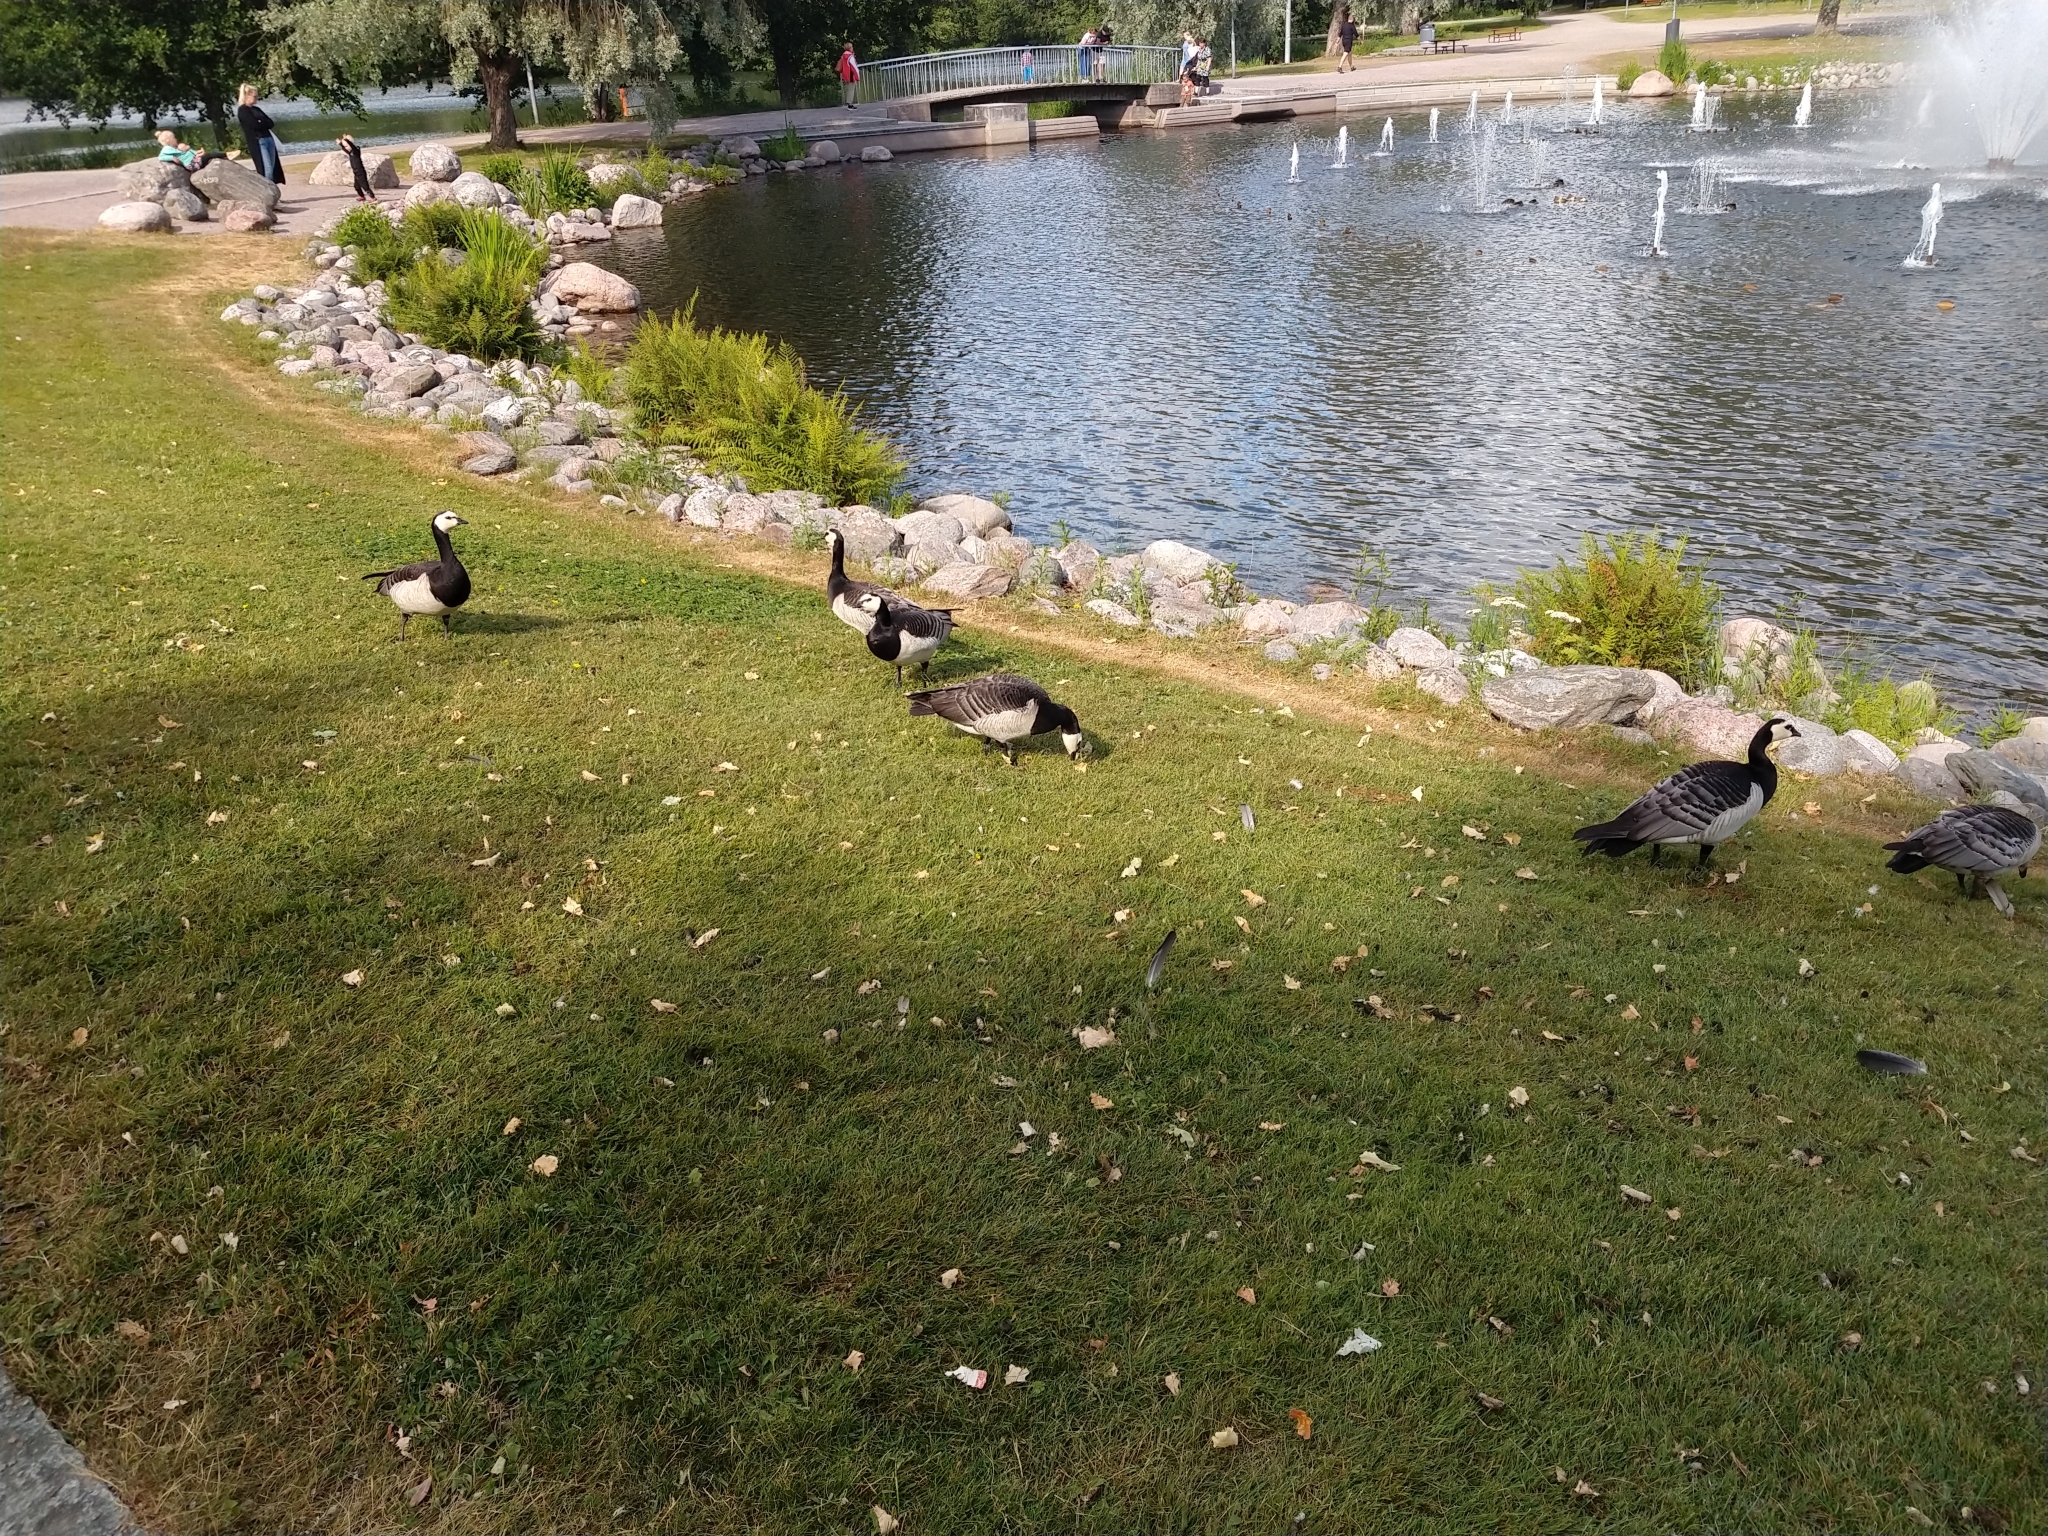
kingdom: Animalia
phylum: Chordata
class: Aves
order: Anseriformes
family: Anatidae
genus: Branta
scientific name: Branta leucopsis
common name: Barnacle goose
